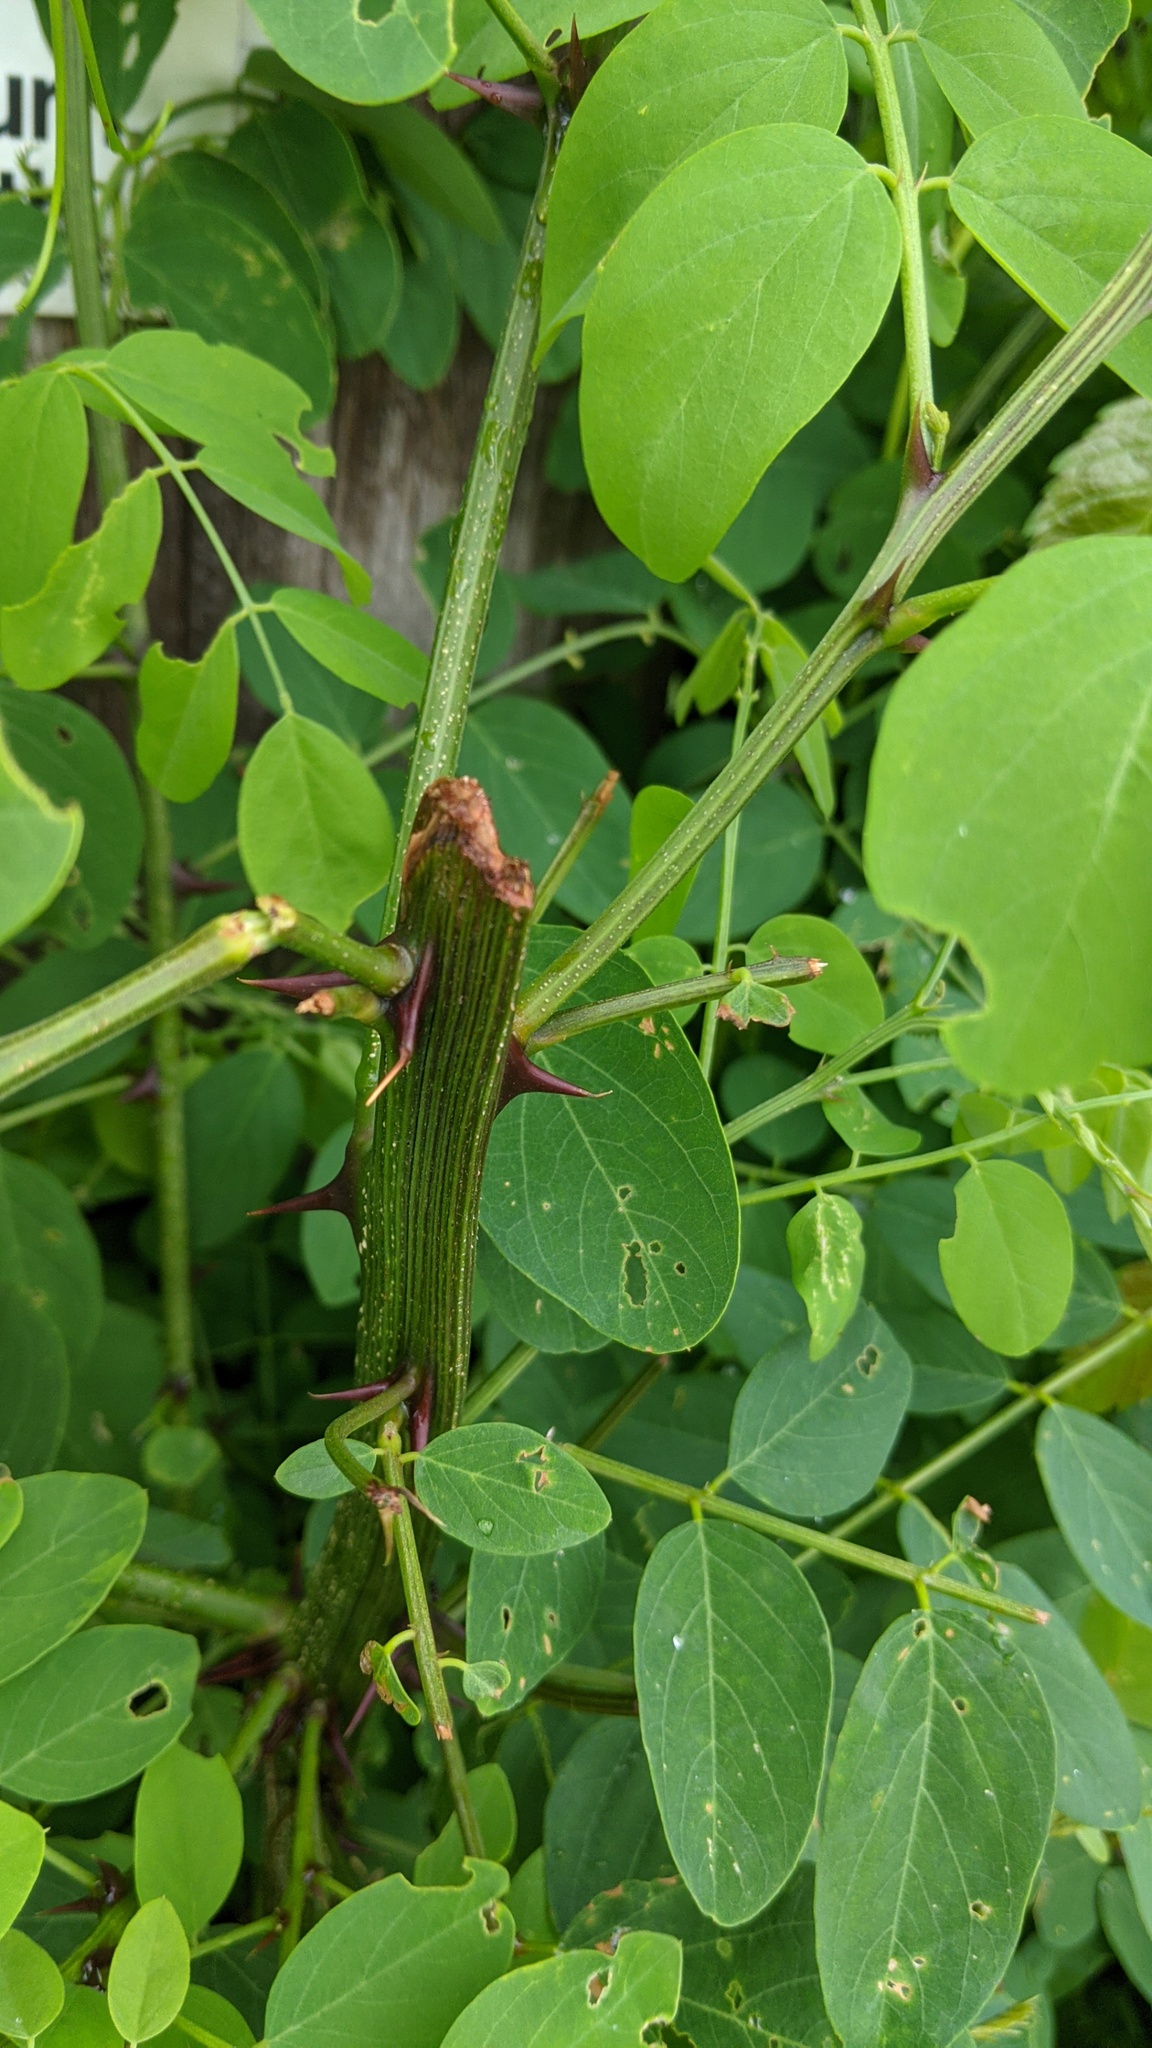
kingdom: Plantae
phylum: Tracheophyta
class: Magnoliopsida
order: Fabales
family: Fabaceae
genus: Robinia
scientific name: Robinia pseudoacacia
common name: Black locust
